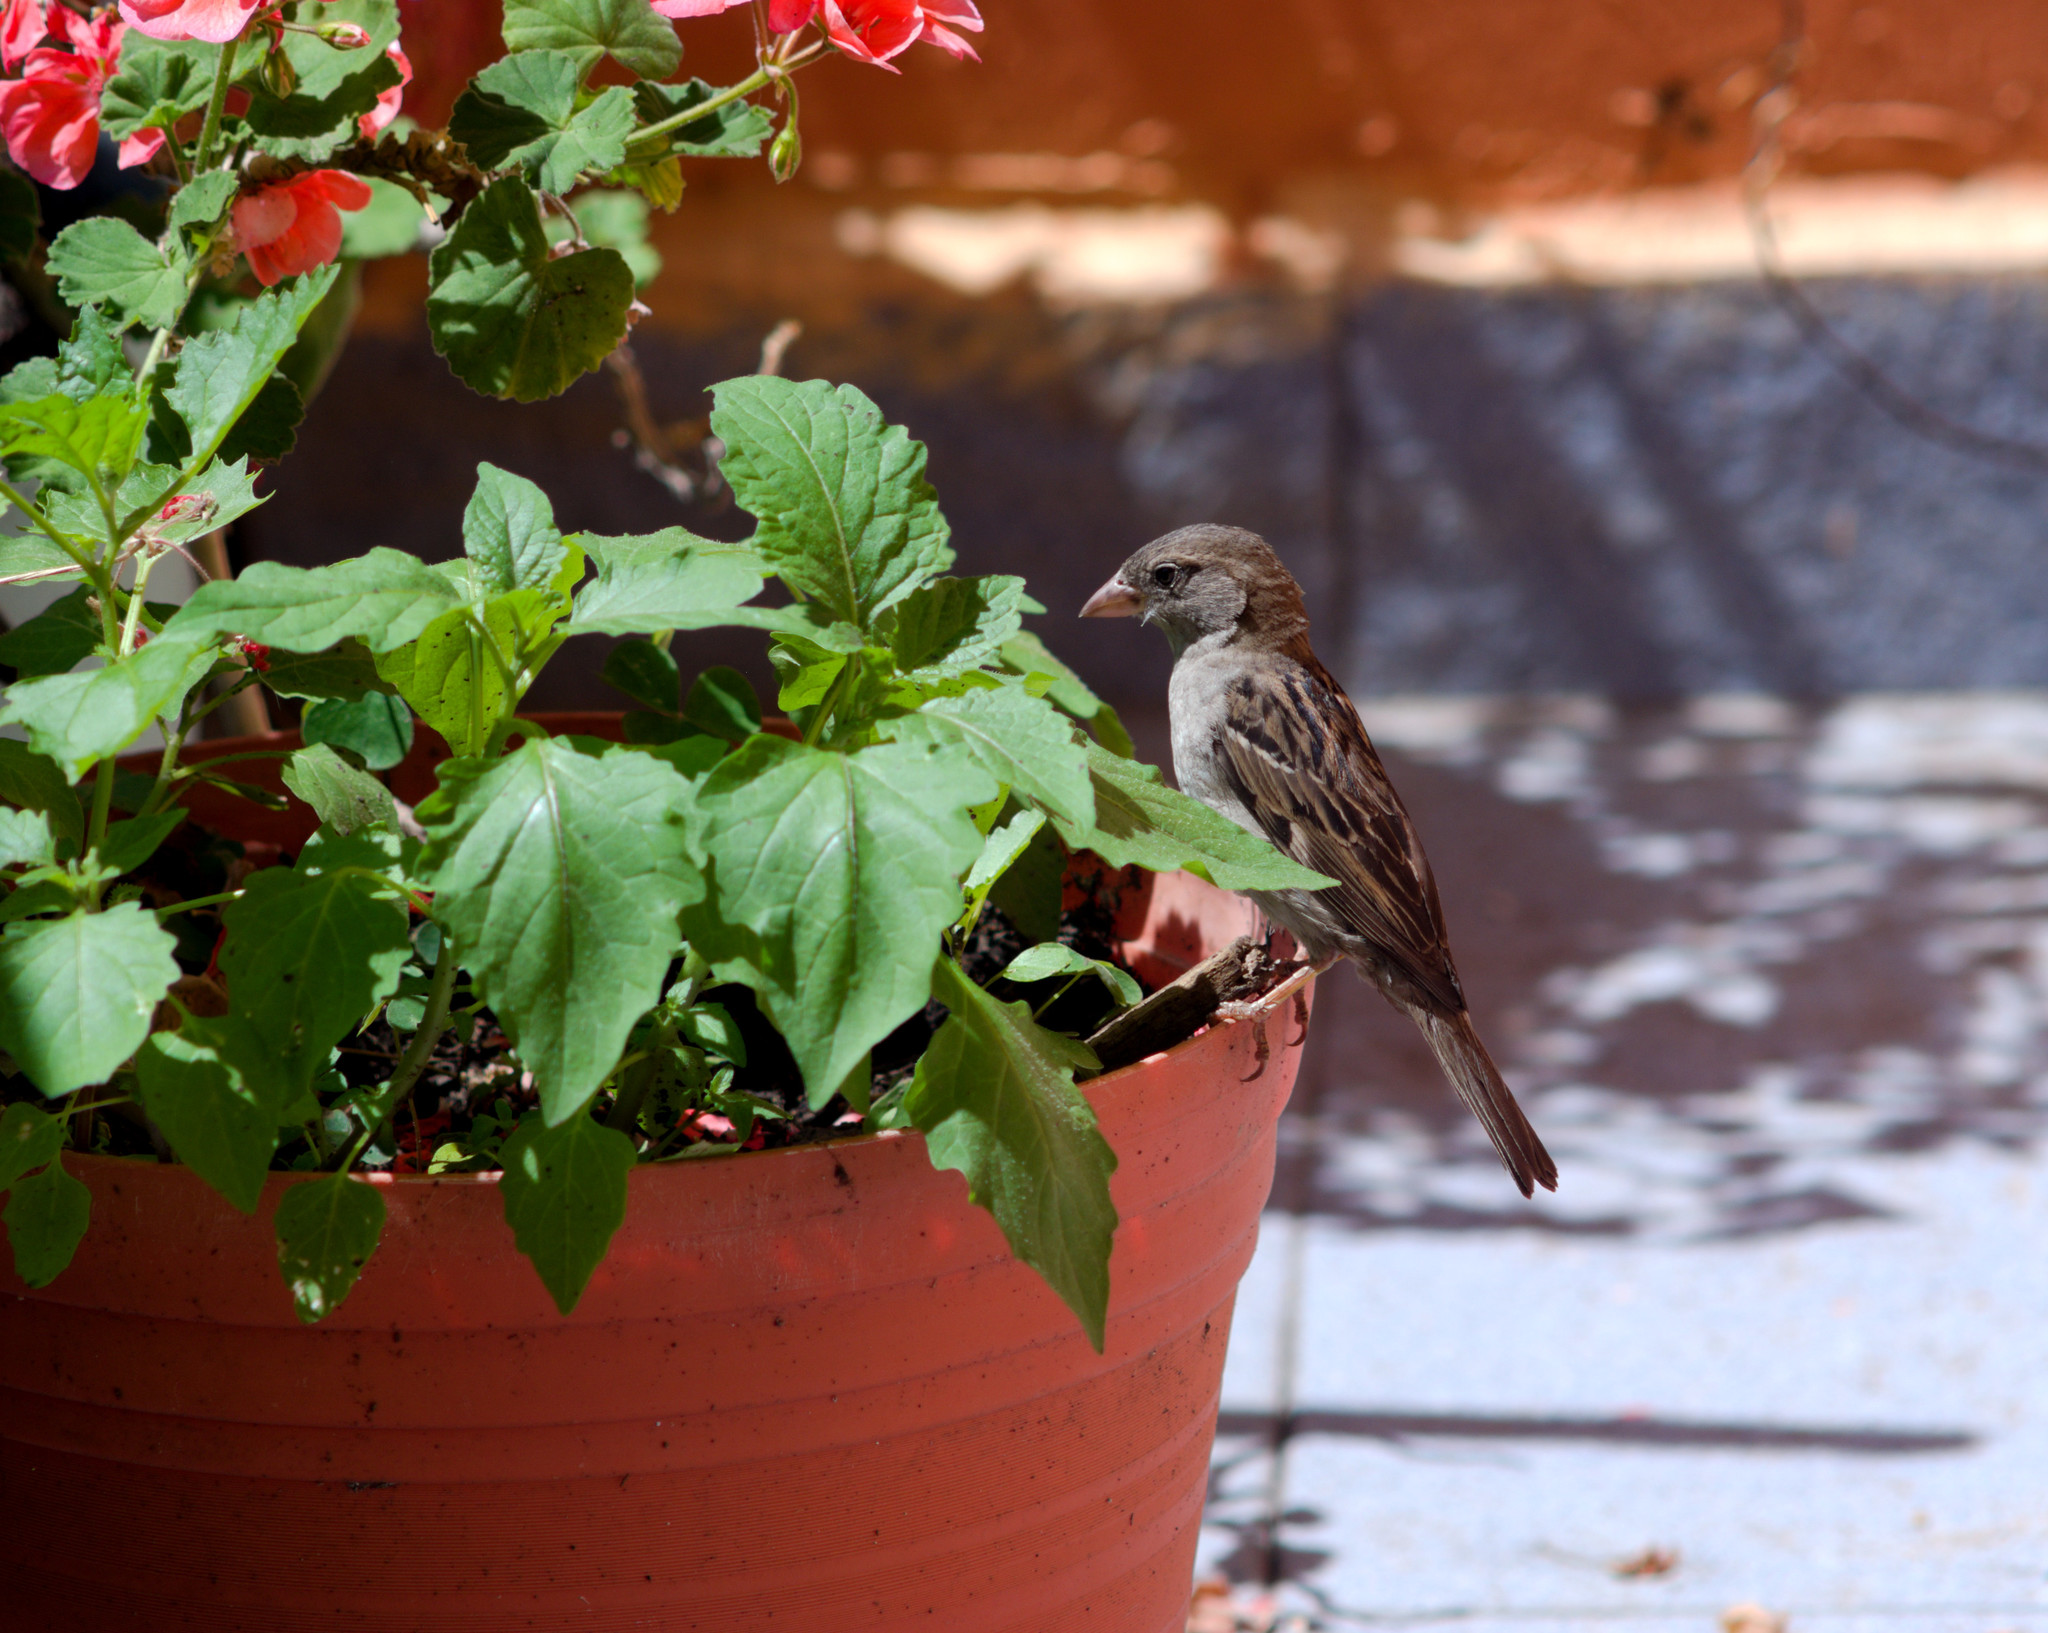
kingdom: Animalia
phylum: Chordata
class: Aves
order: Passeriformes
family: Passeridae
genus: Passer
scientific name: Passer domesticus
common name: House sparrow
